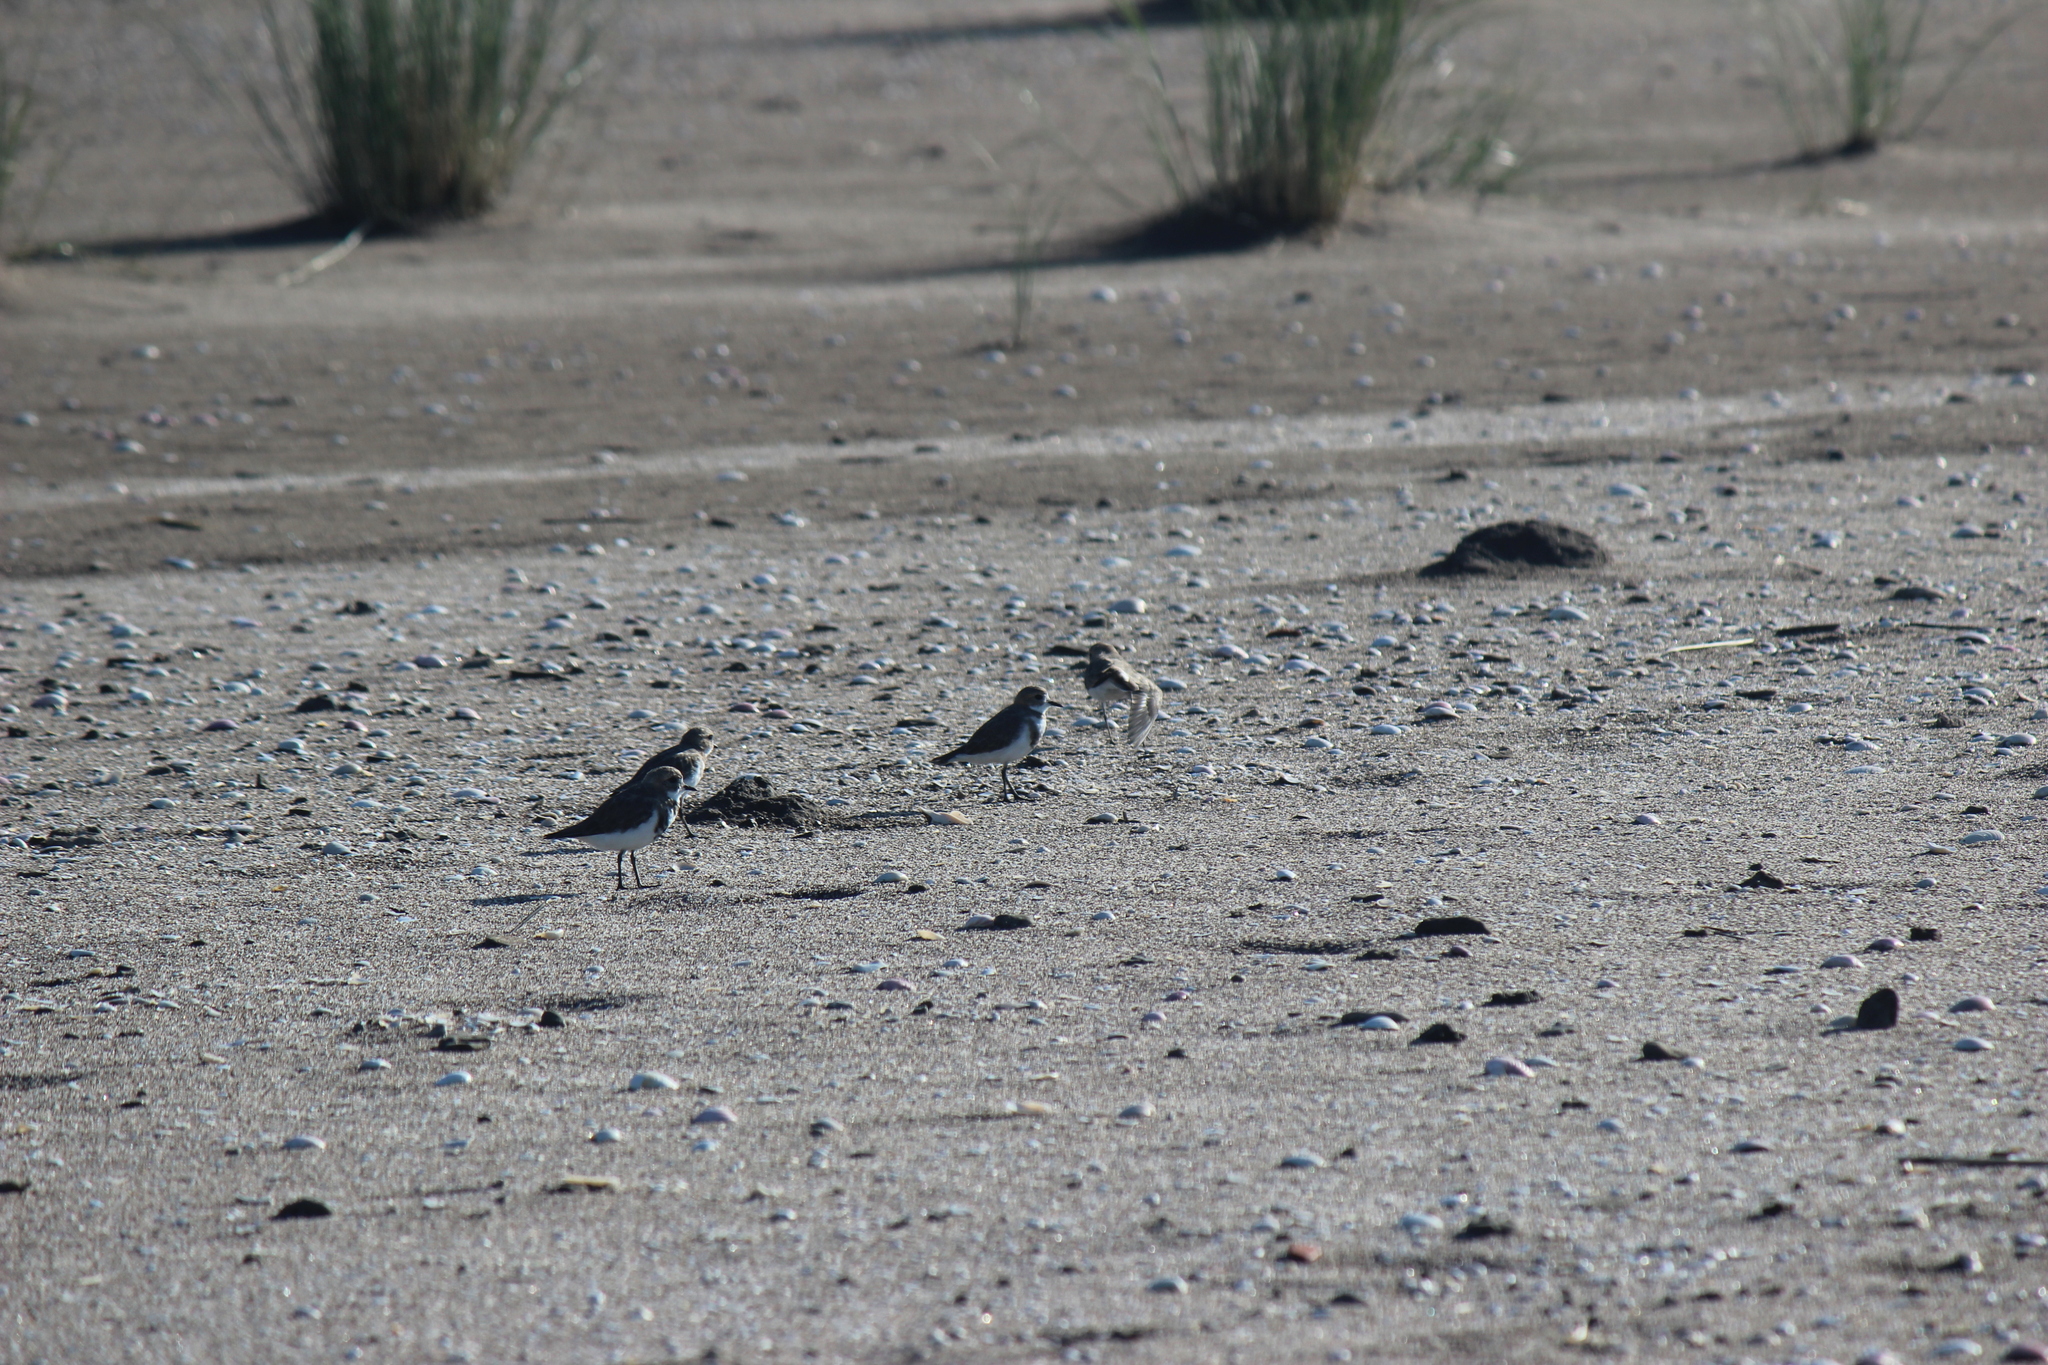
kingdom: Animalia
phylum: Chordata
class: Aves
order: Charadriiformes
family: Charadriidae
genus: Anarhynchus
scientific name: Anarhynchus
